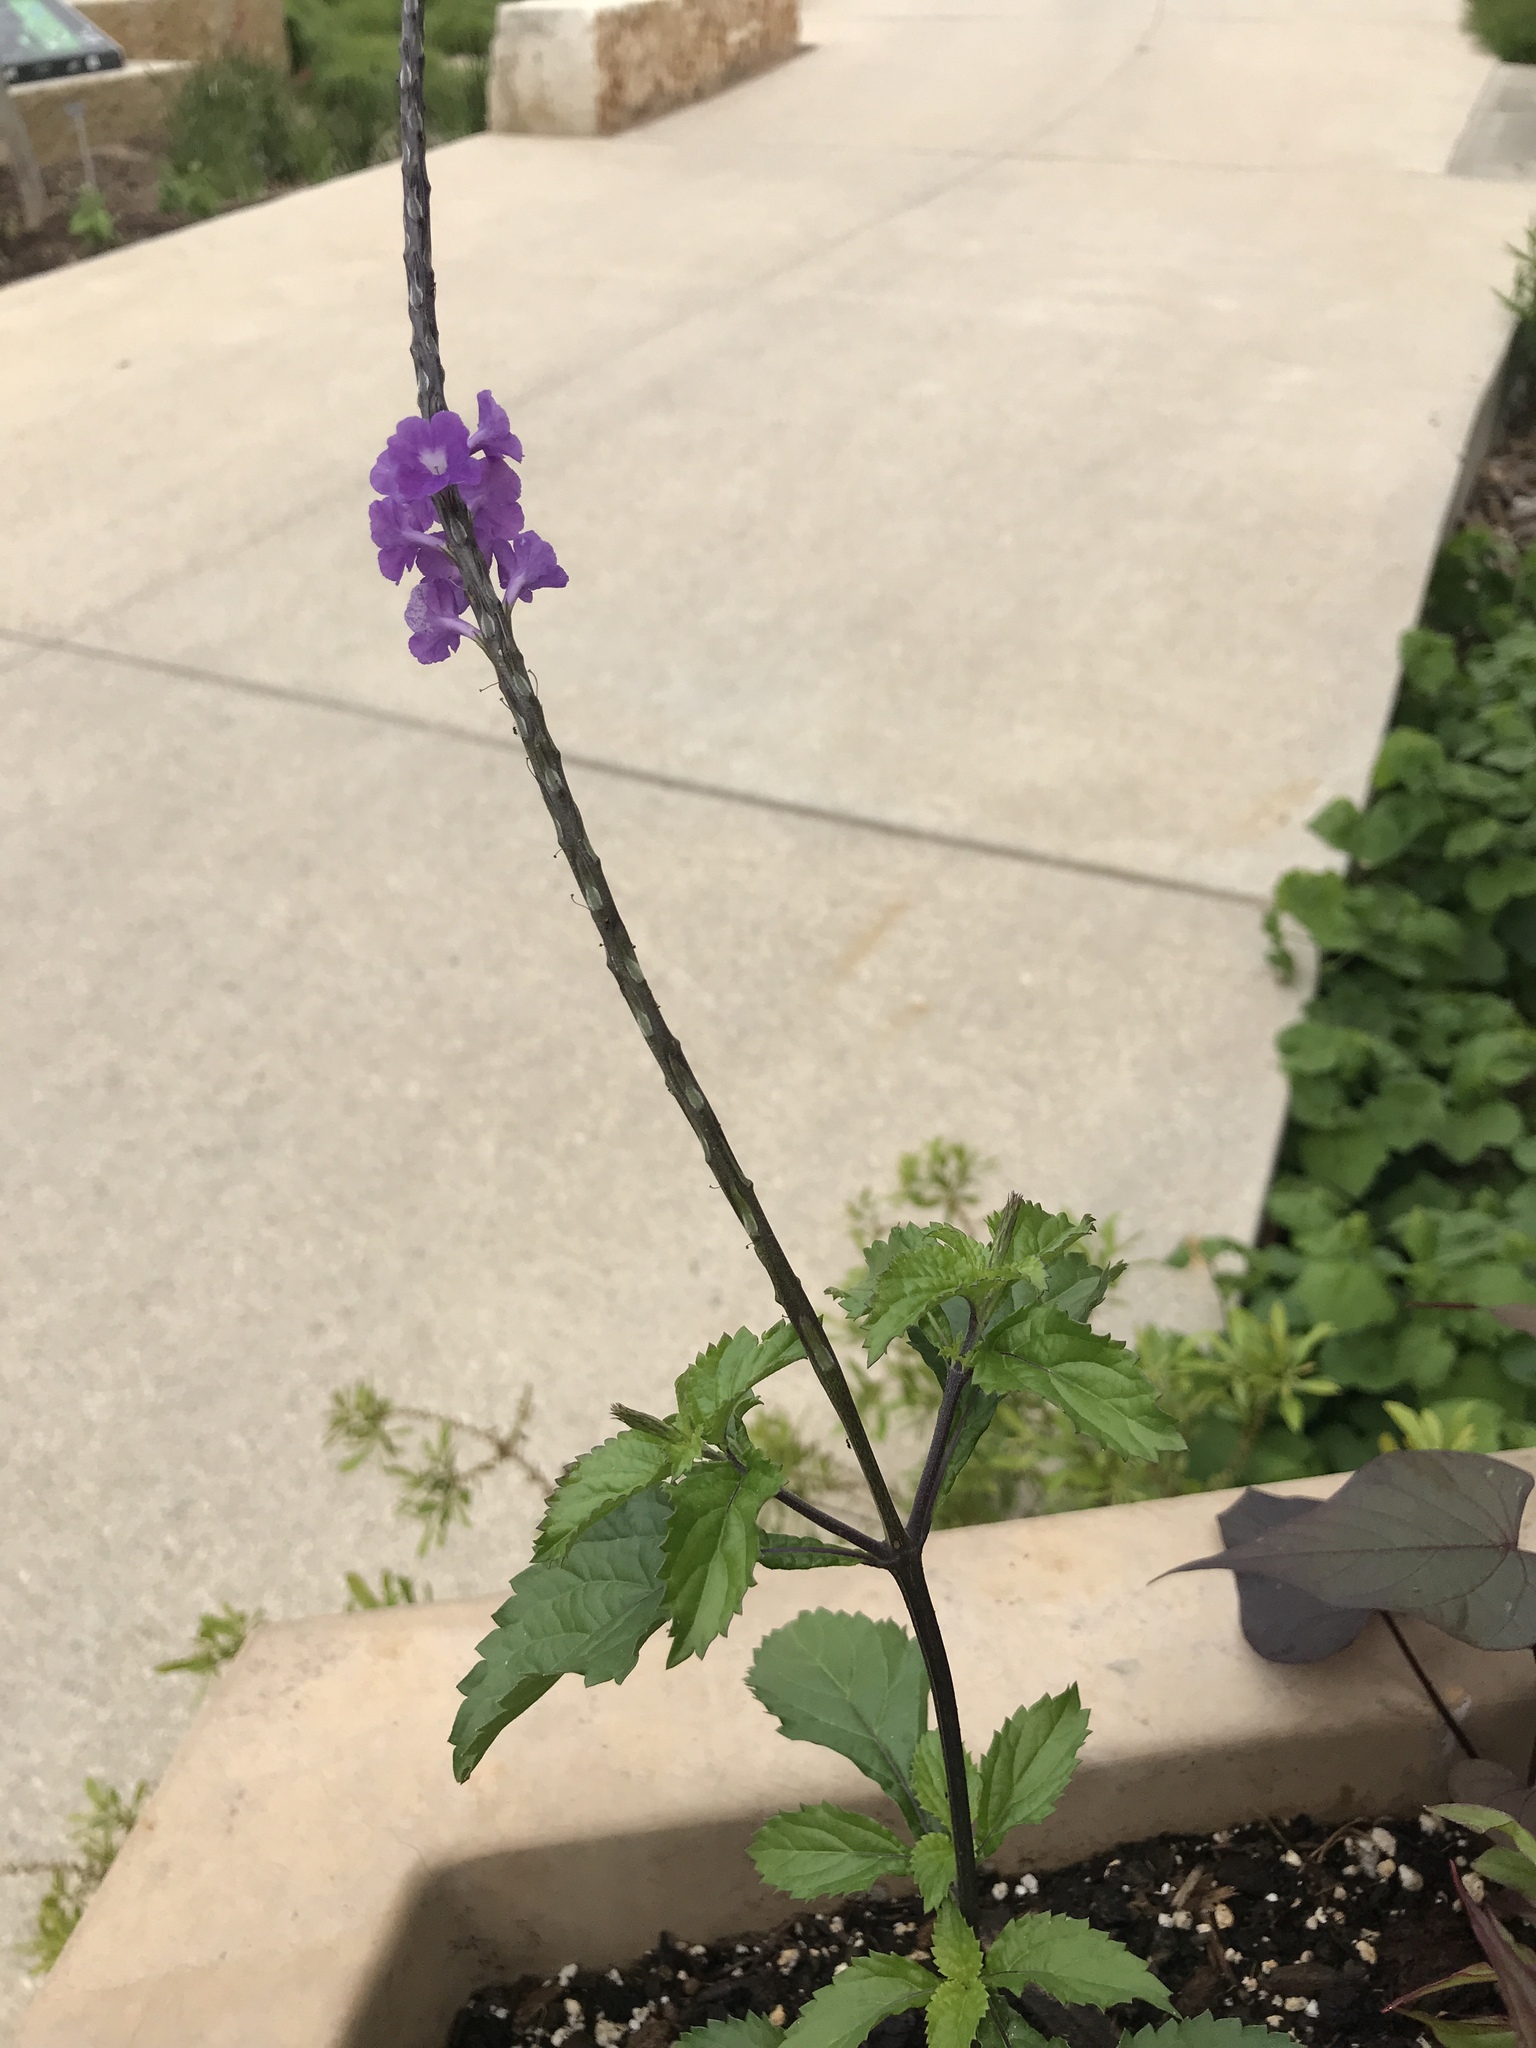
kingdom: Plantae
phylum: Tracheophyta
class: Magnoliopsida
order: Lamiales
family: Verbenaceae
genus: Stachytarpheta
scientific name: Stachytarpheta jamaicensis
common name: Light-blue snakeweed
